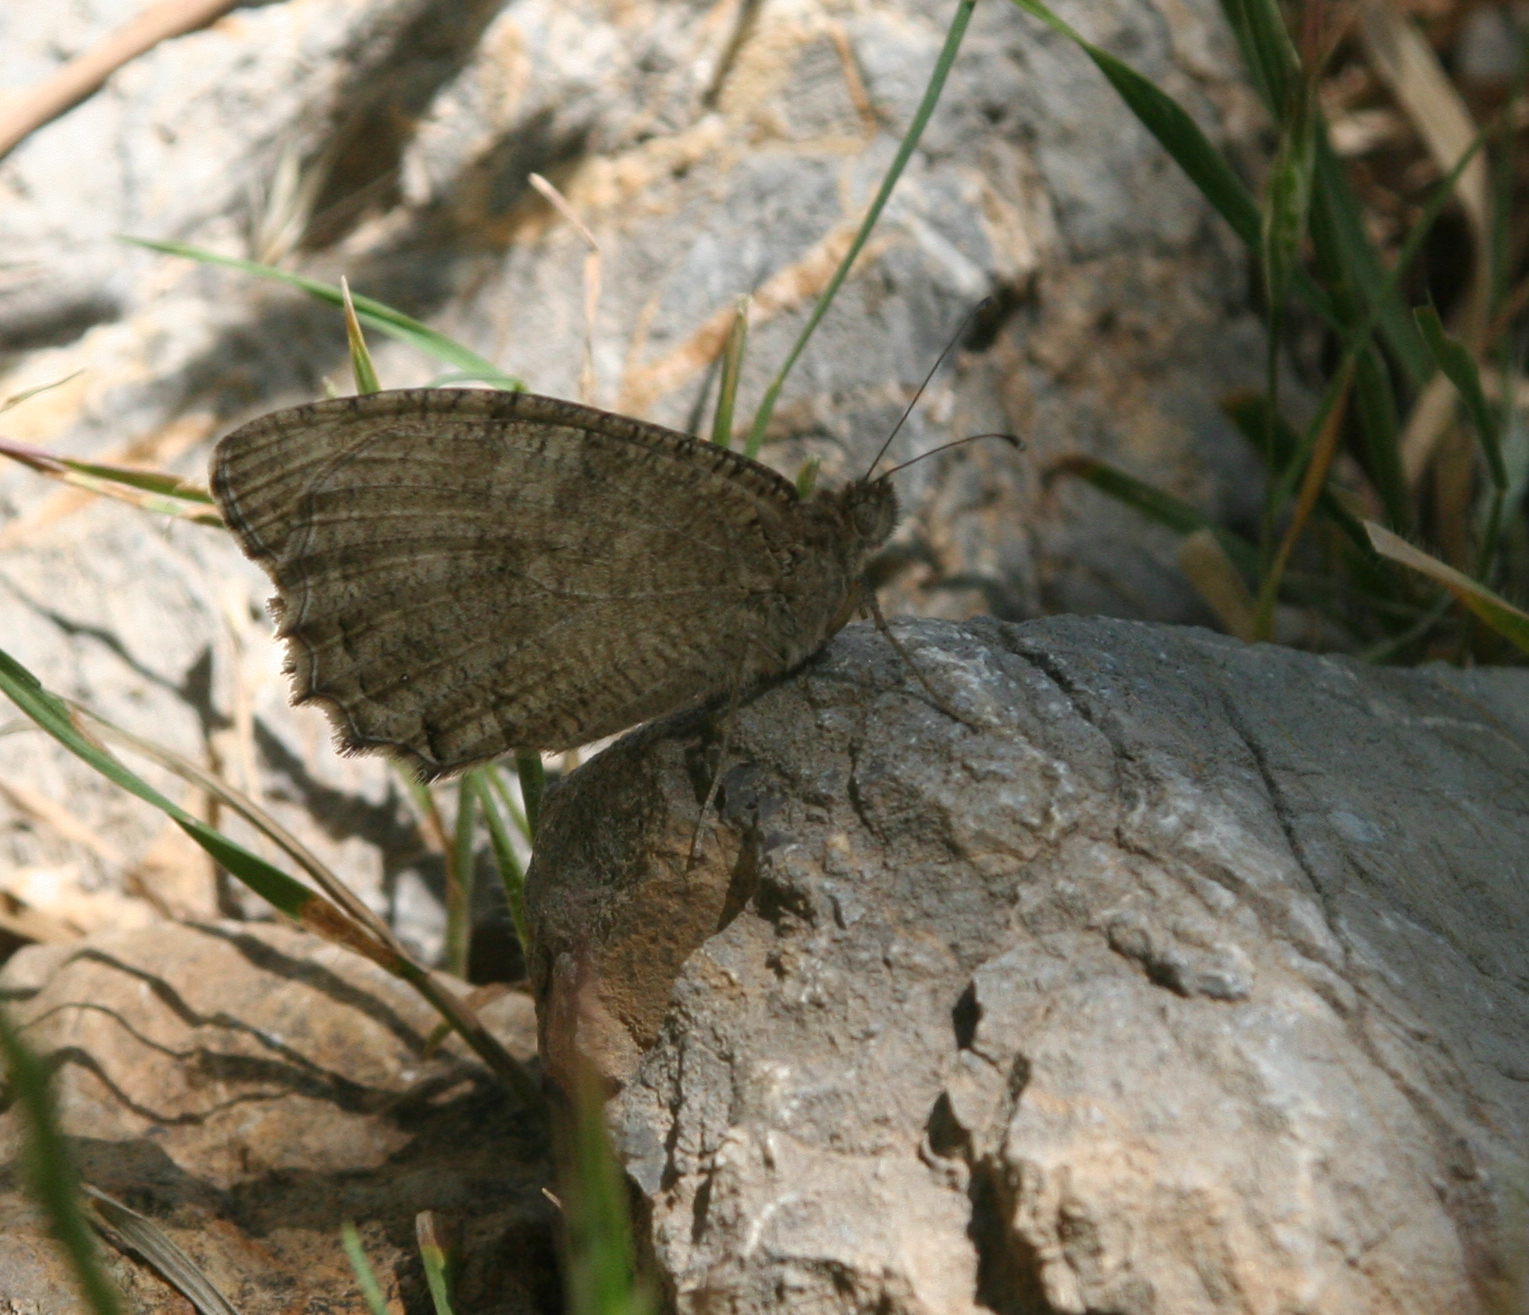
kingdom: Animalia
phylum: Arthropoda
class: Insecta
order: Lepidoptera
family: Nymphalidae
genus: Pseudochazara
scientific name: Pseudochazara thelephassa
